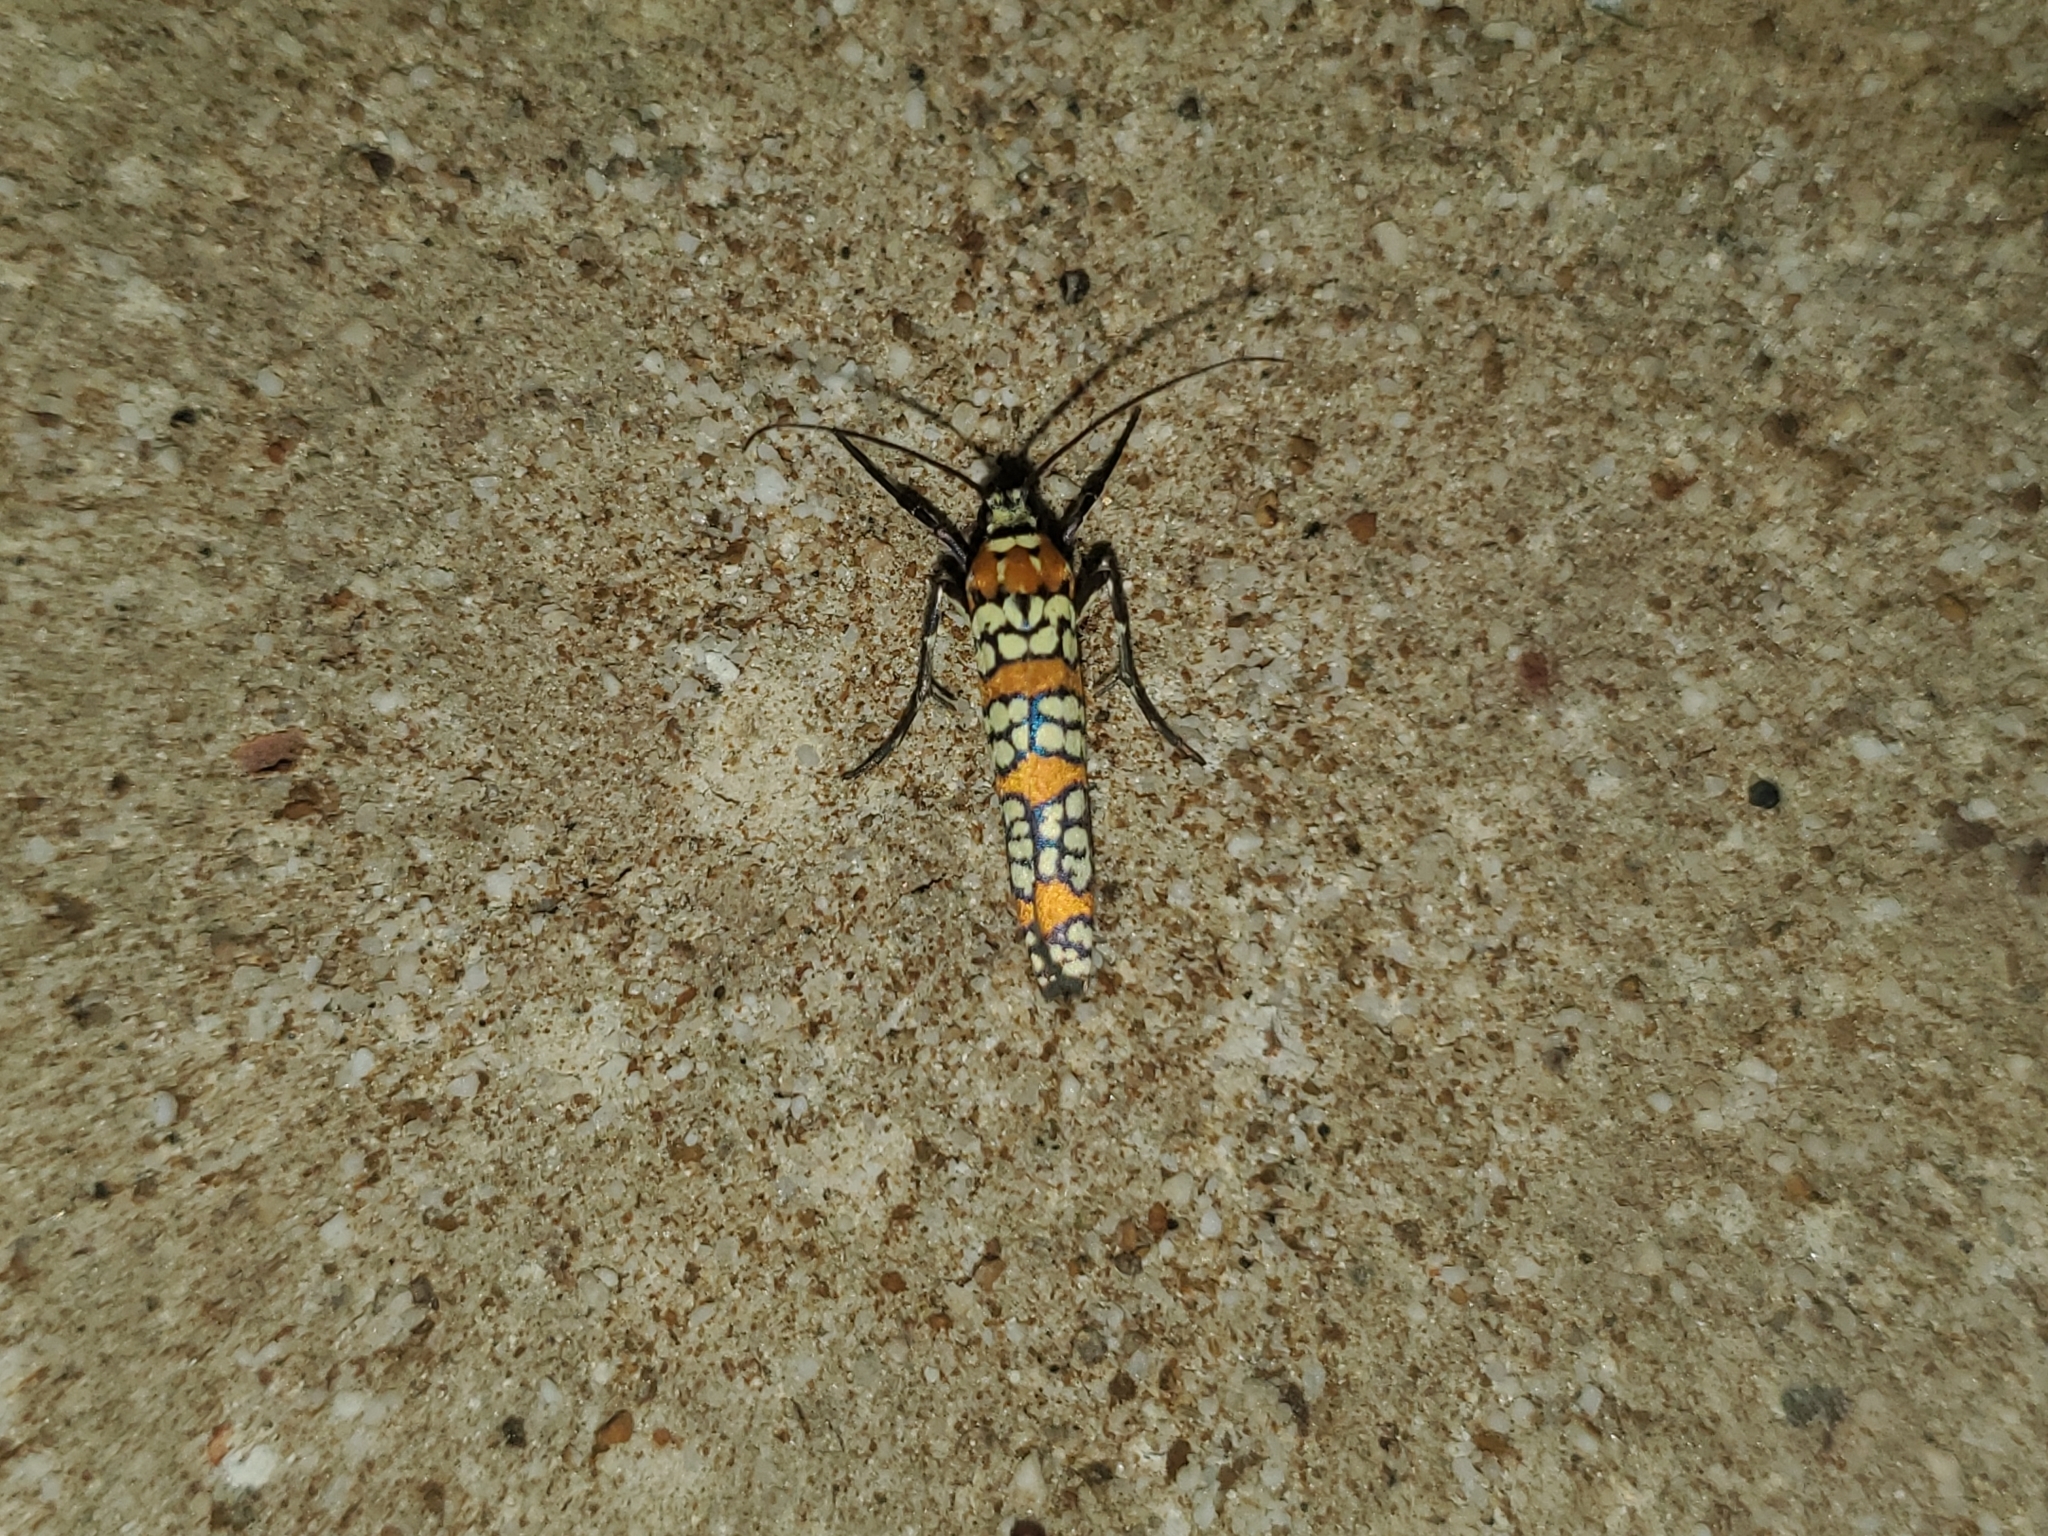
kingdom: Animalia
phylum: Arthropoda
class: Insecta
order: Lepidoptera
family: Attevidae
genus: Atteva
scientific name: Atteva punctella
